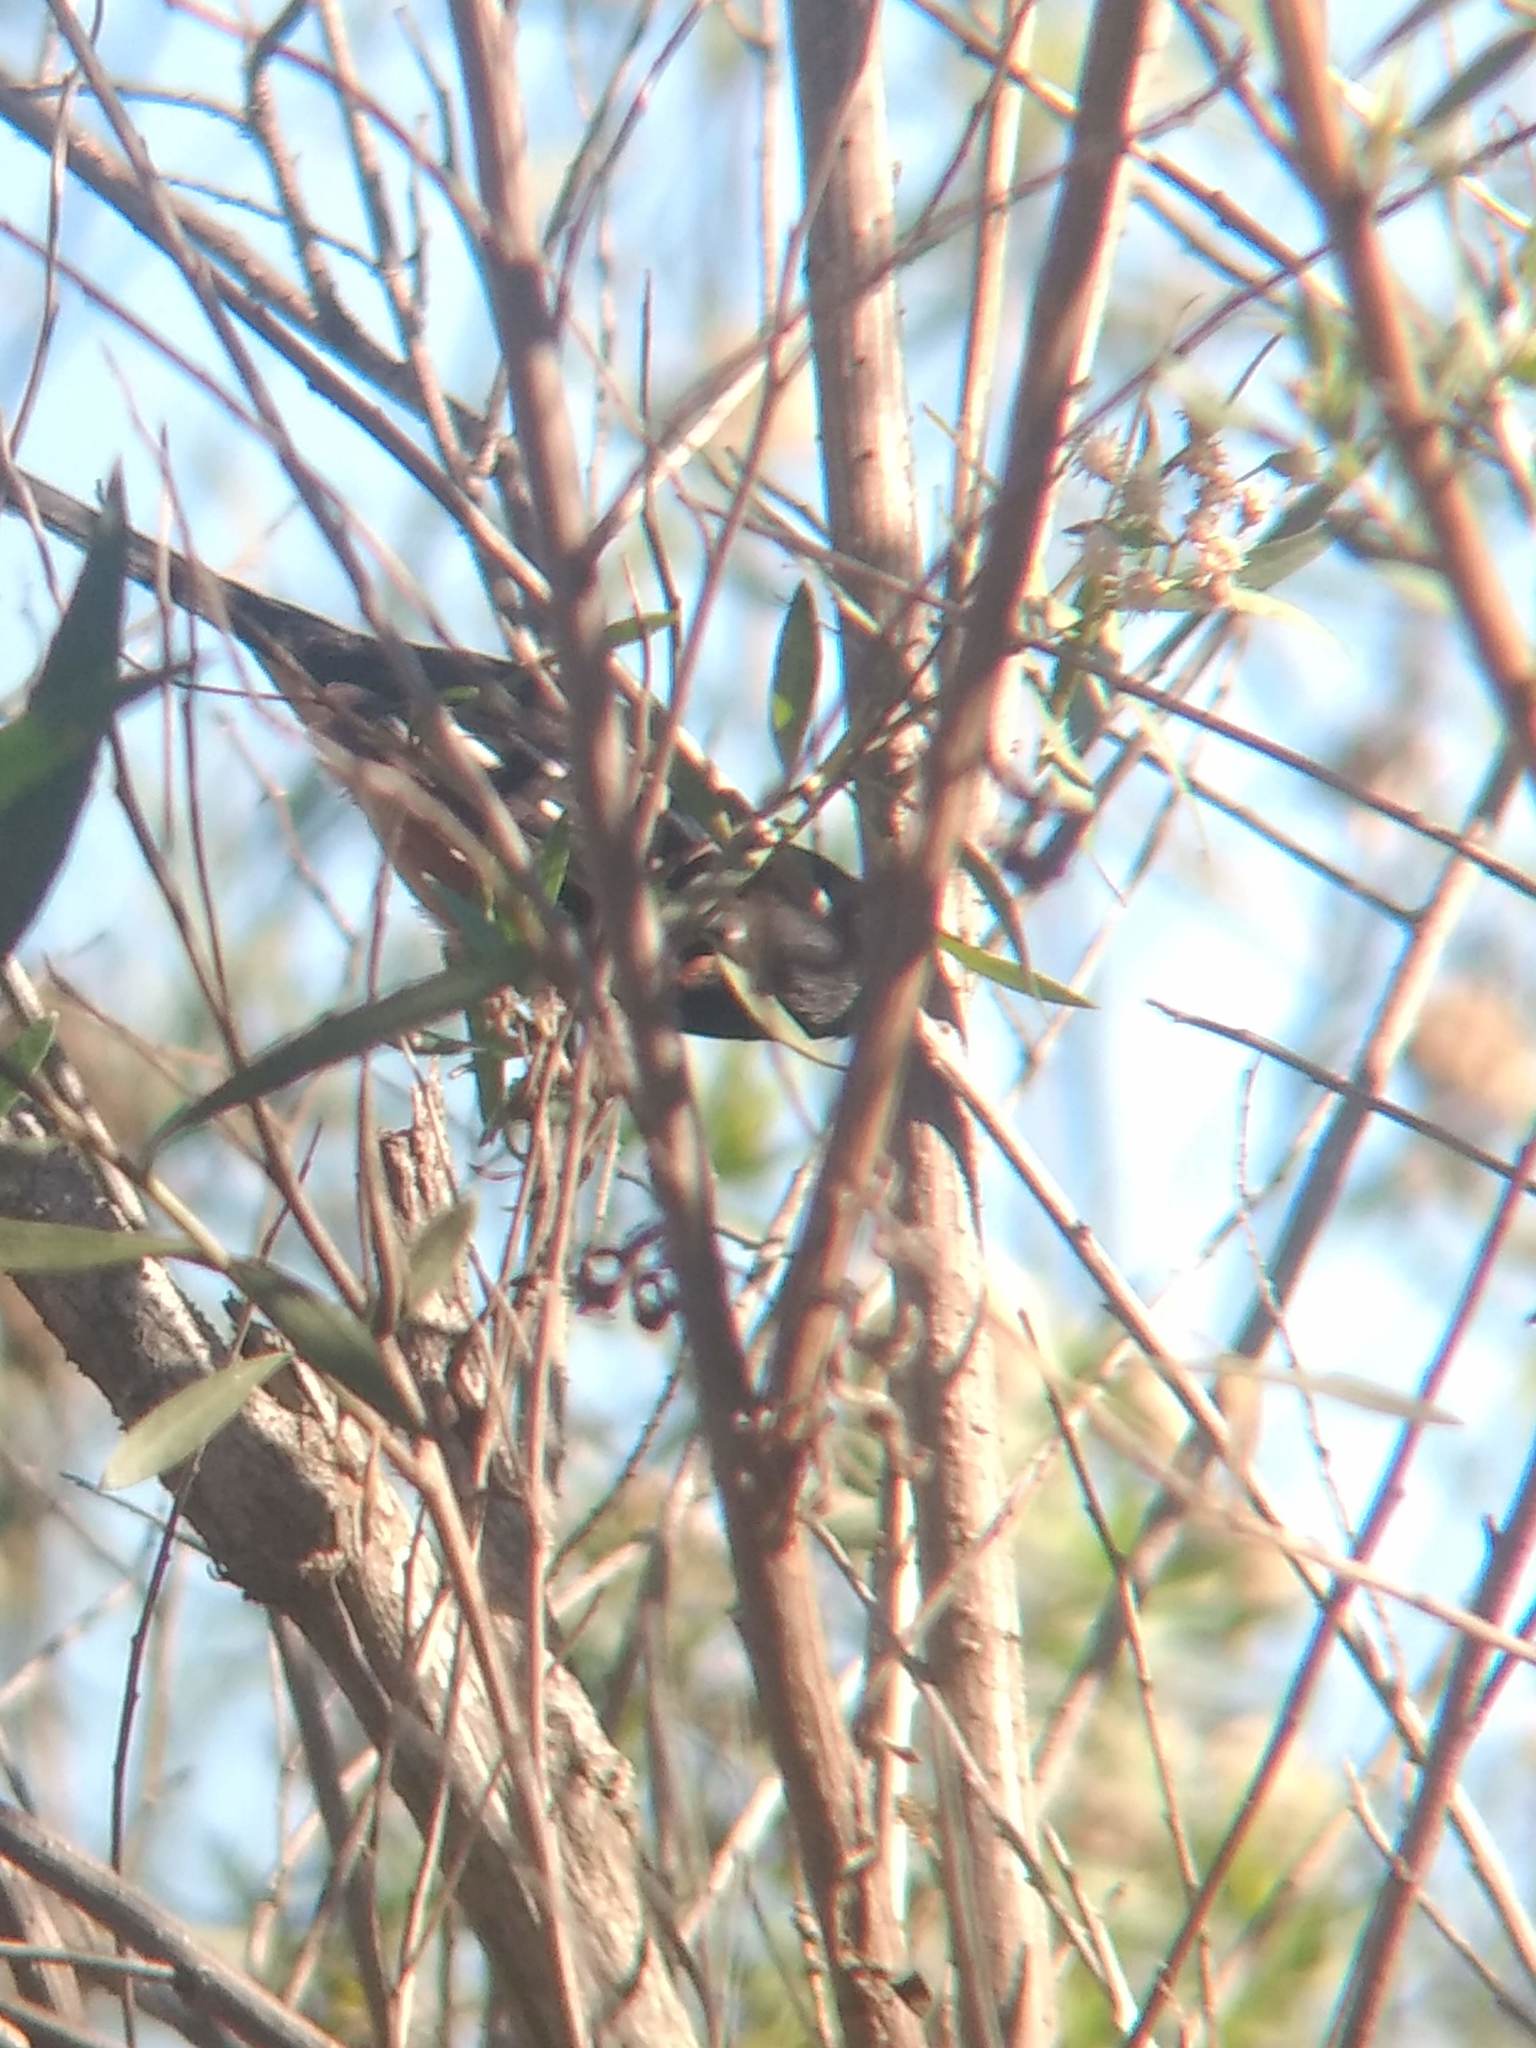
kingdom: Animalia
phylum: Chordata
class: Aves
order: Passeriformes
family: Passerellidae
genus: Pipilo
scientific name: Pipilo maculatus
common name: Spotted towhee
